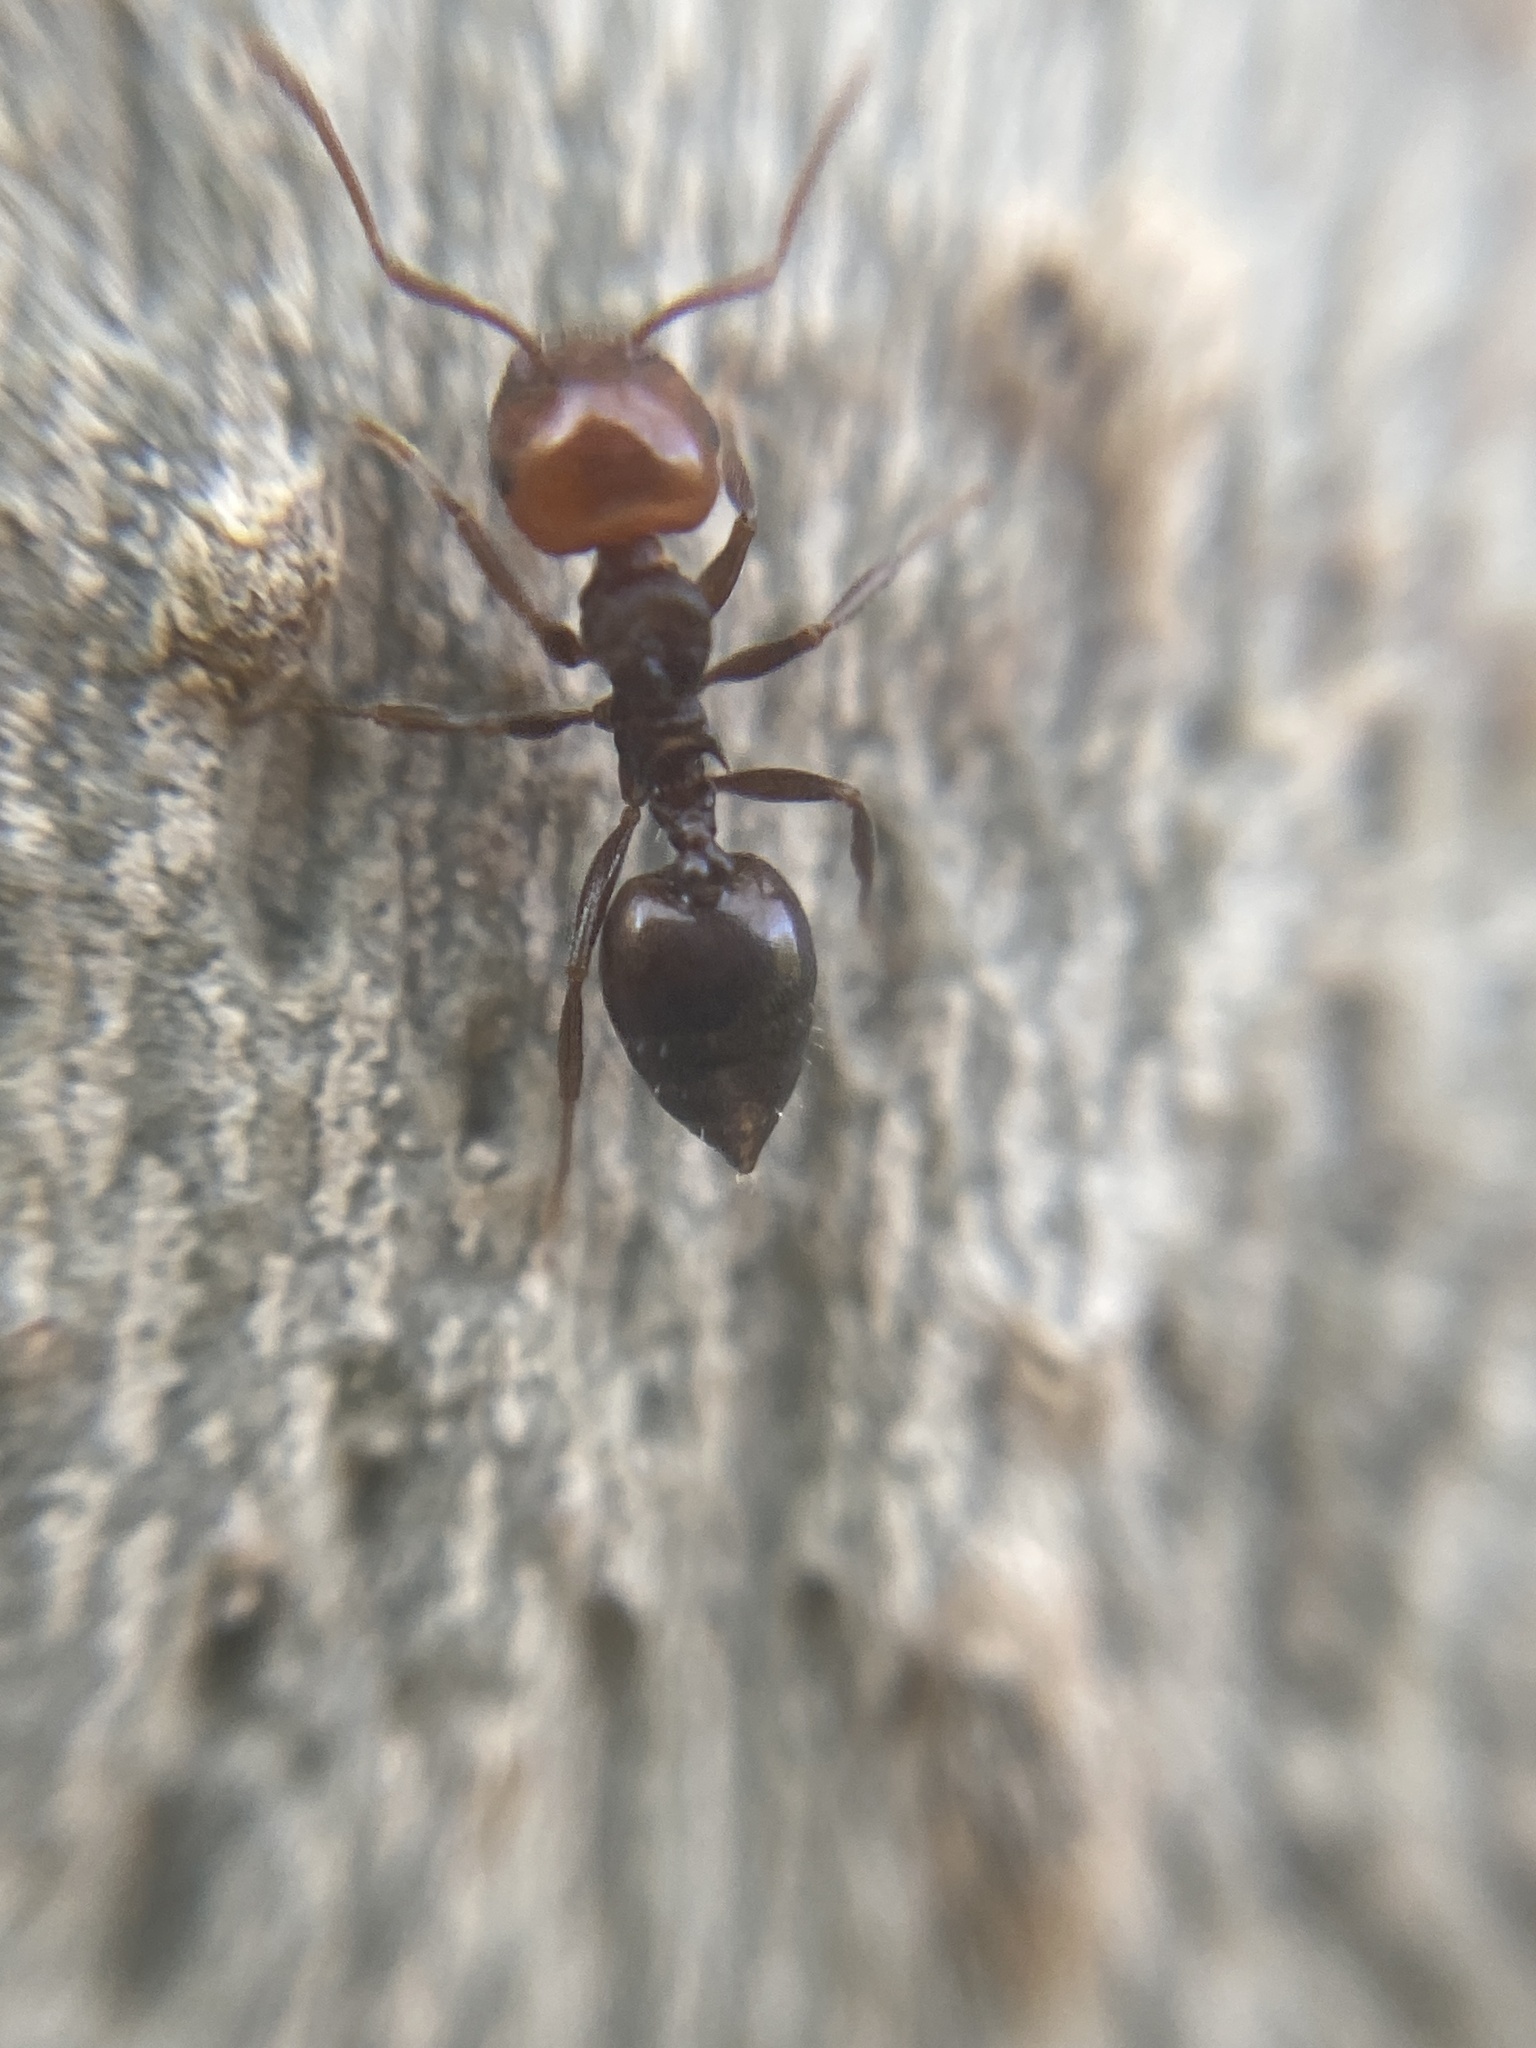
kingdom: Animalia
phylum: Arthropoda
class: Insecta
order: Hymenoptera
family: Formicidae
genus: Crematogaster
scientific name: Crematogaster scutellaris
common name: Fourmi du liège
